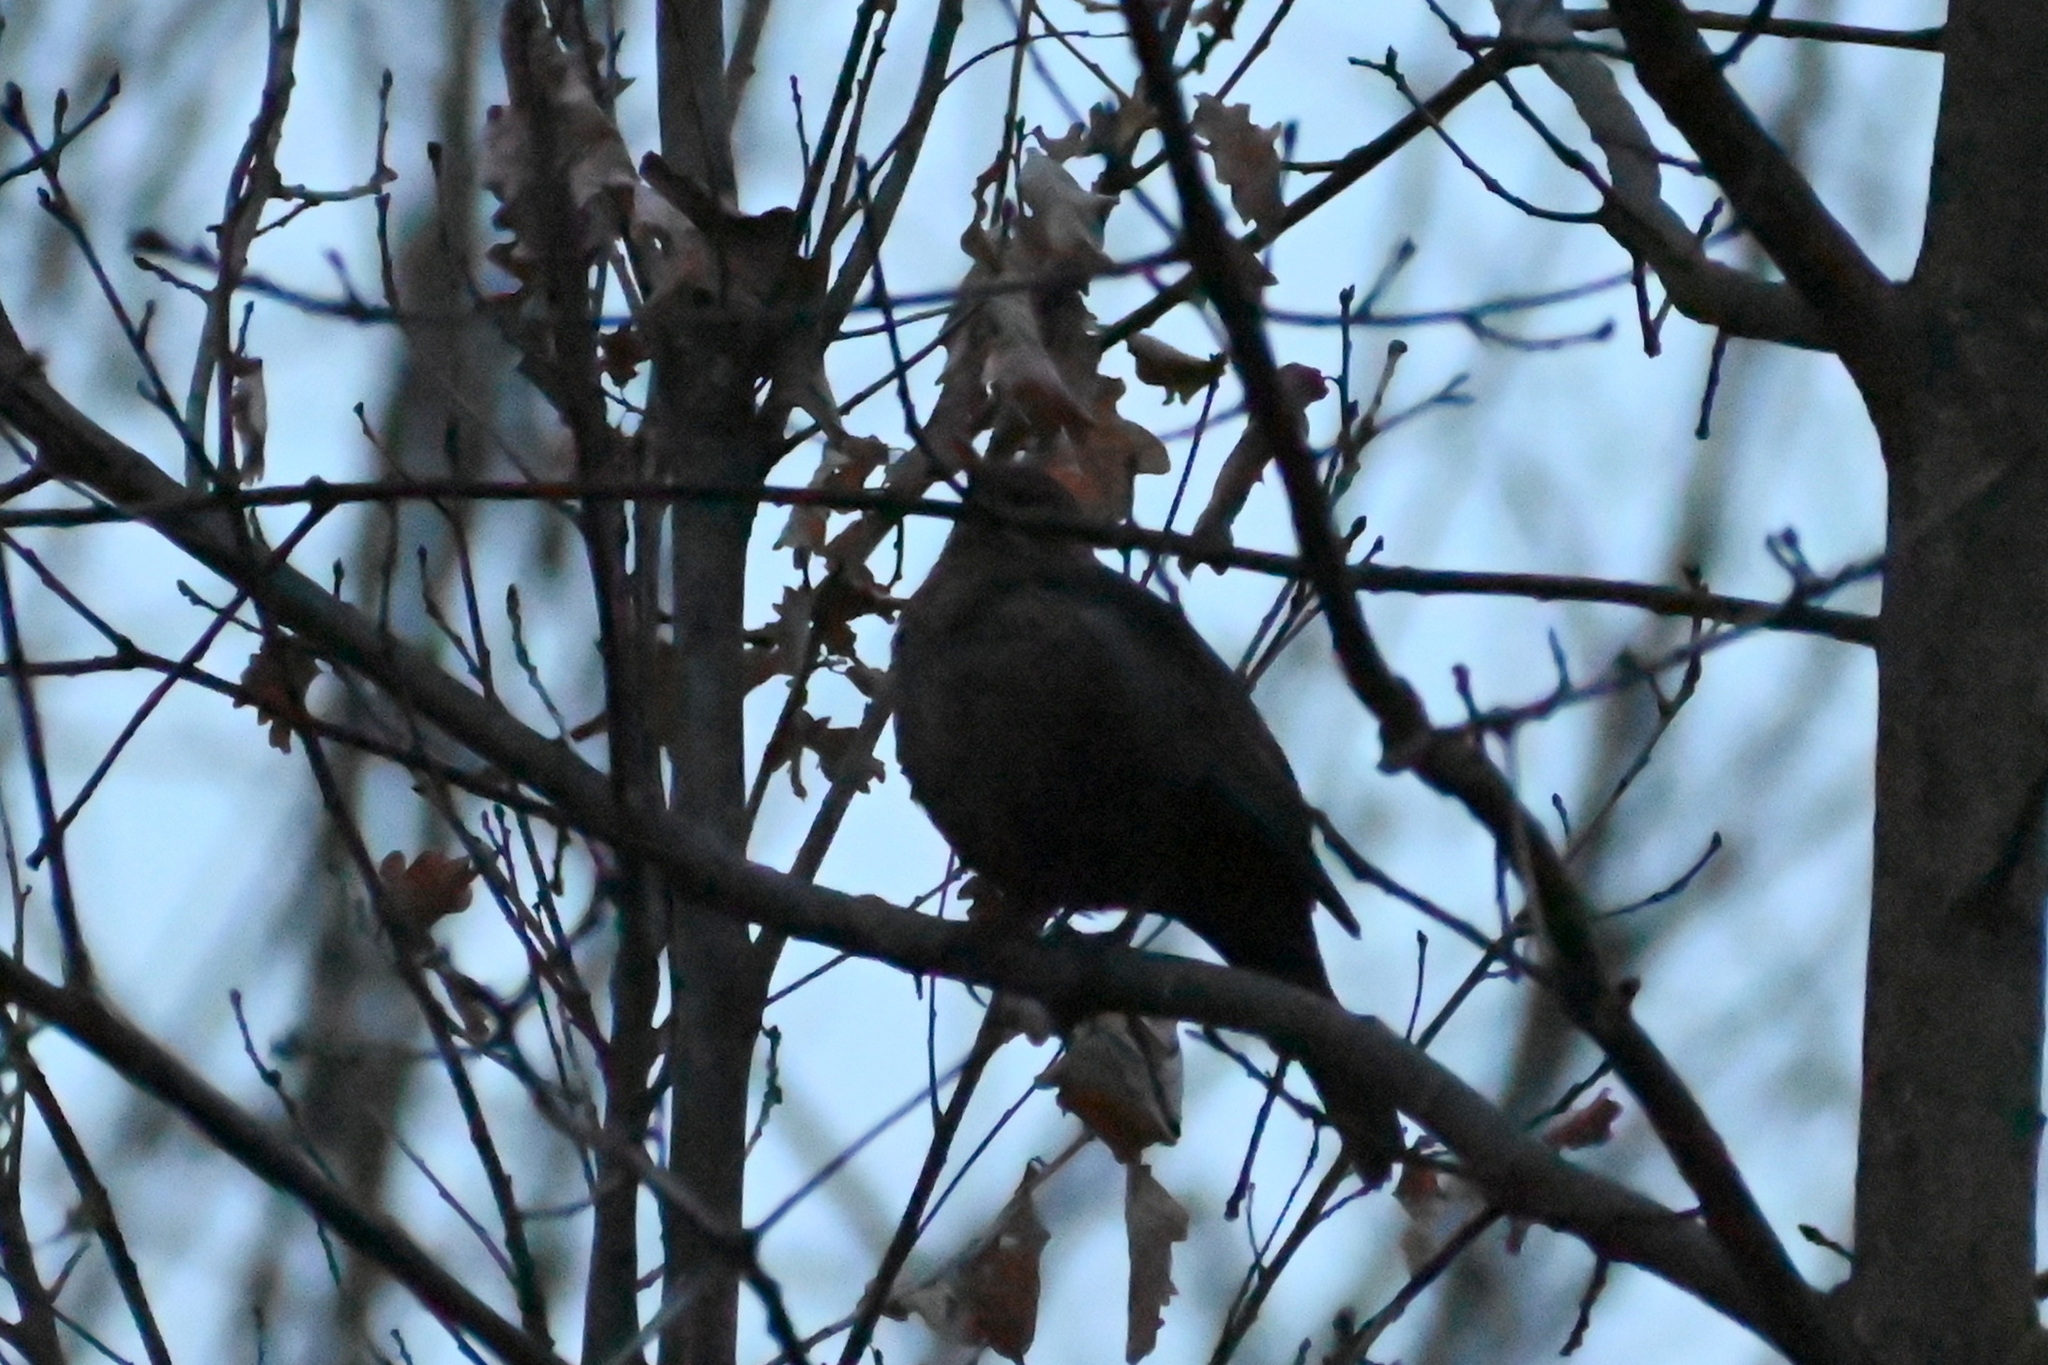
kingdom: Animalia
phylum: Chordata
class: Aves
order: Passeriformes
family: Turdidae
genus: Turdus
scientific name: Turdus merula
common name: Common blackbird
